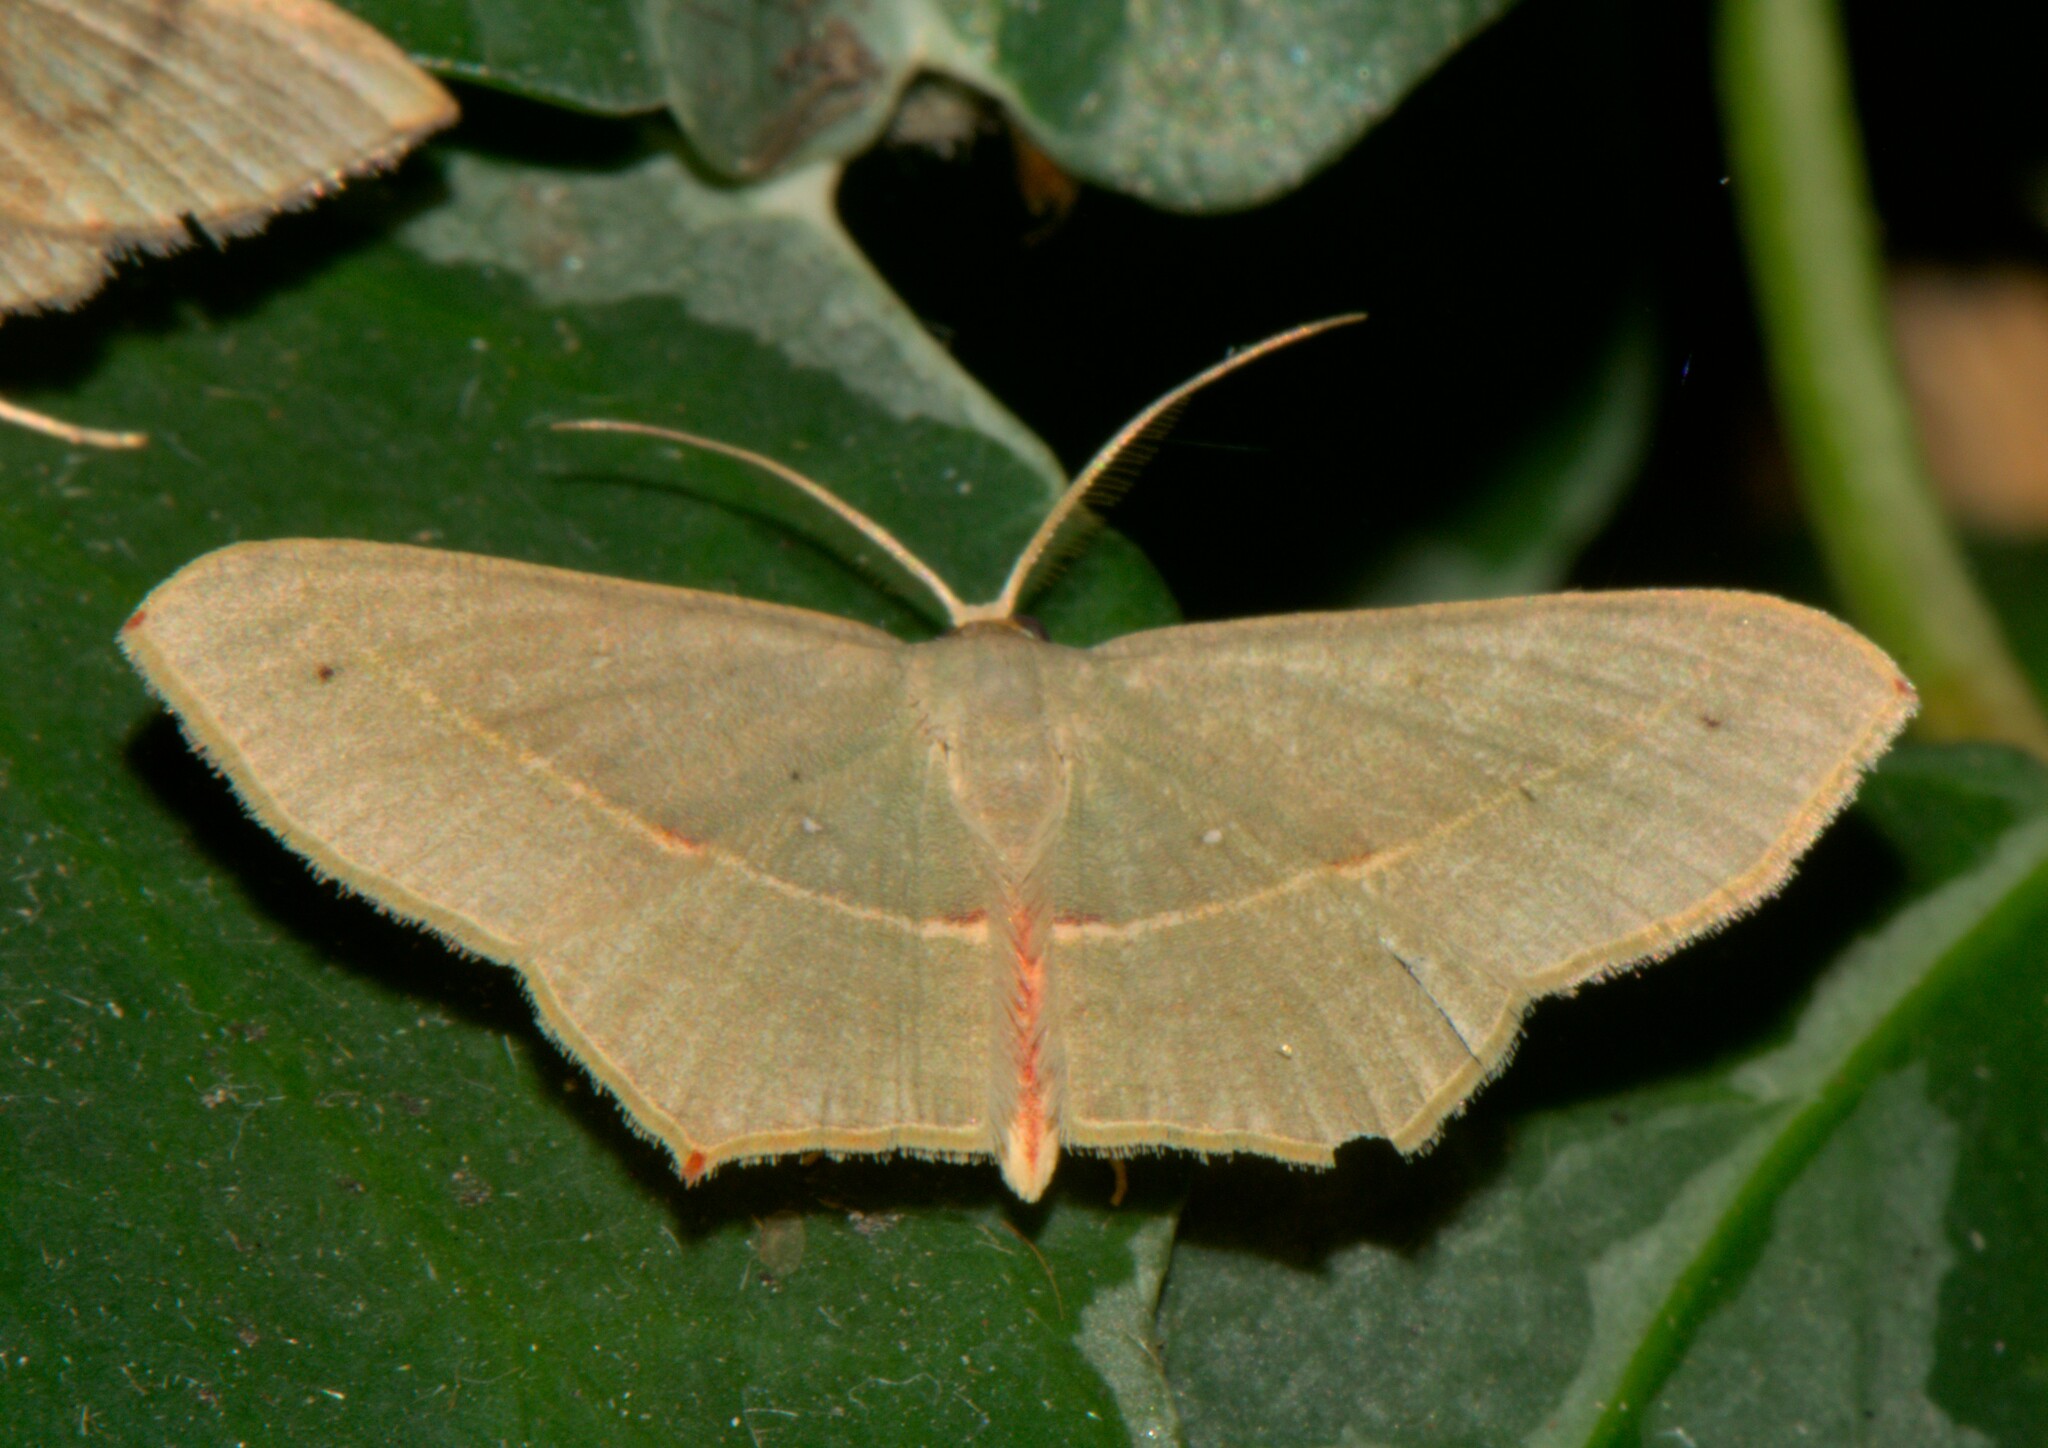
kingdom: Animalia
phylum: Arthropoda
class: Insecta
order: Lepidoptera
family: Geometridae
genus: Traminda
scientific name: Traminda mundissima
